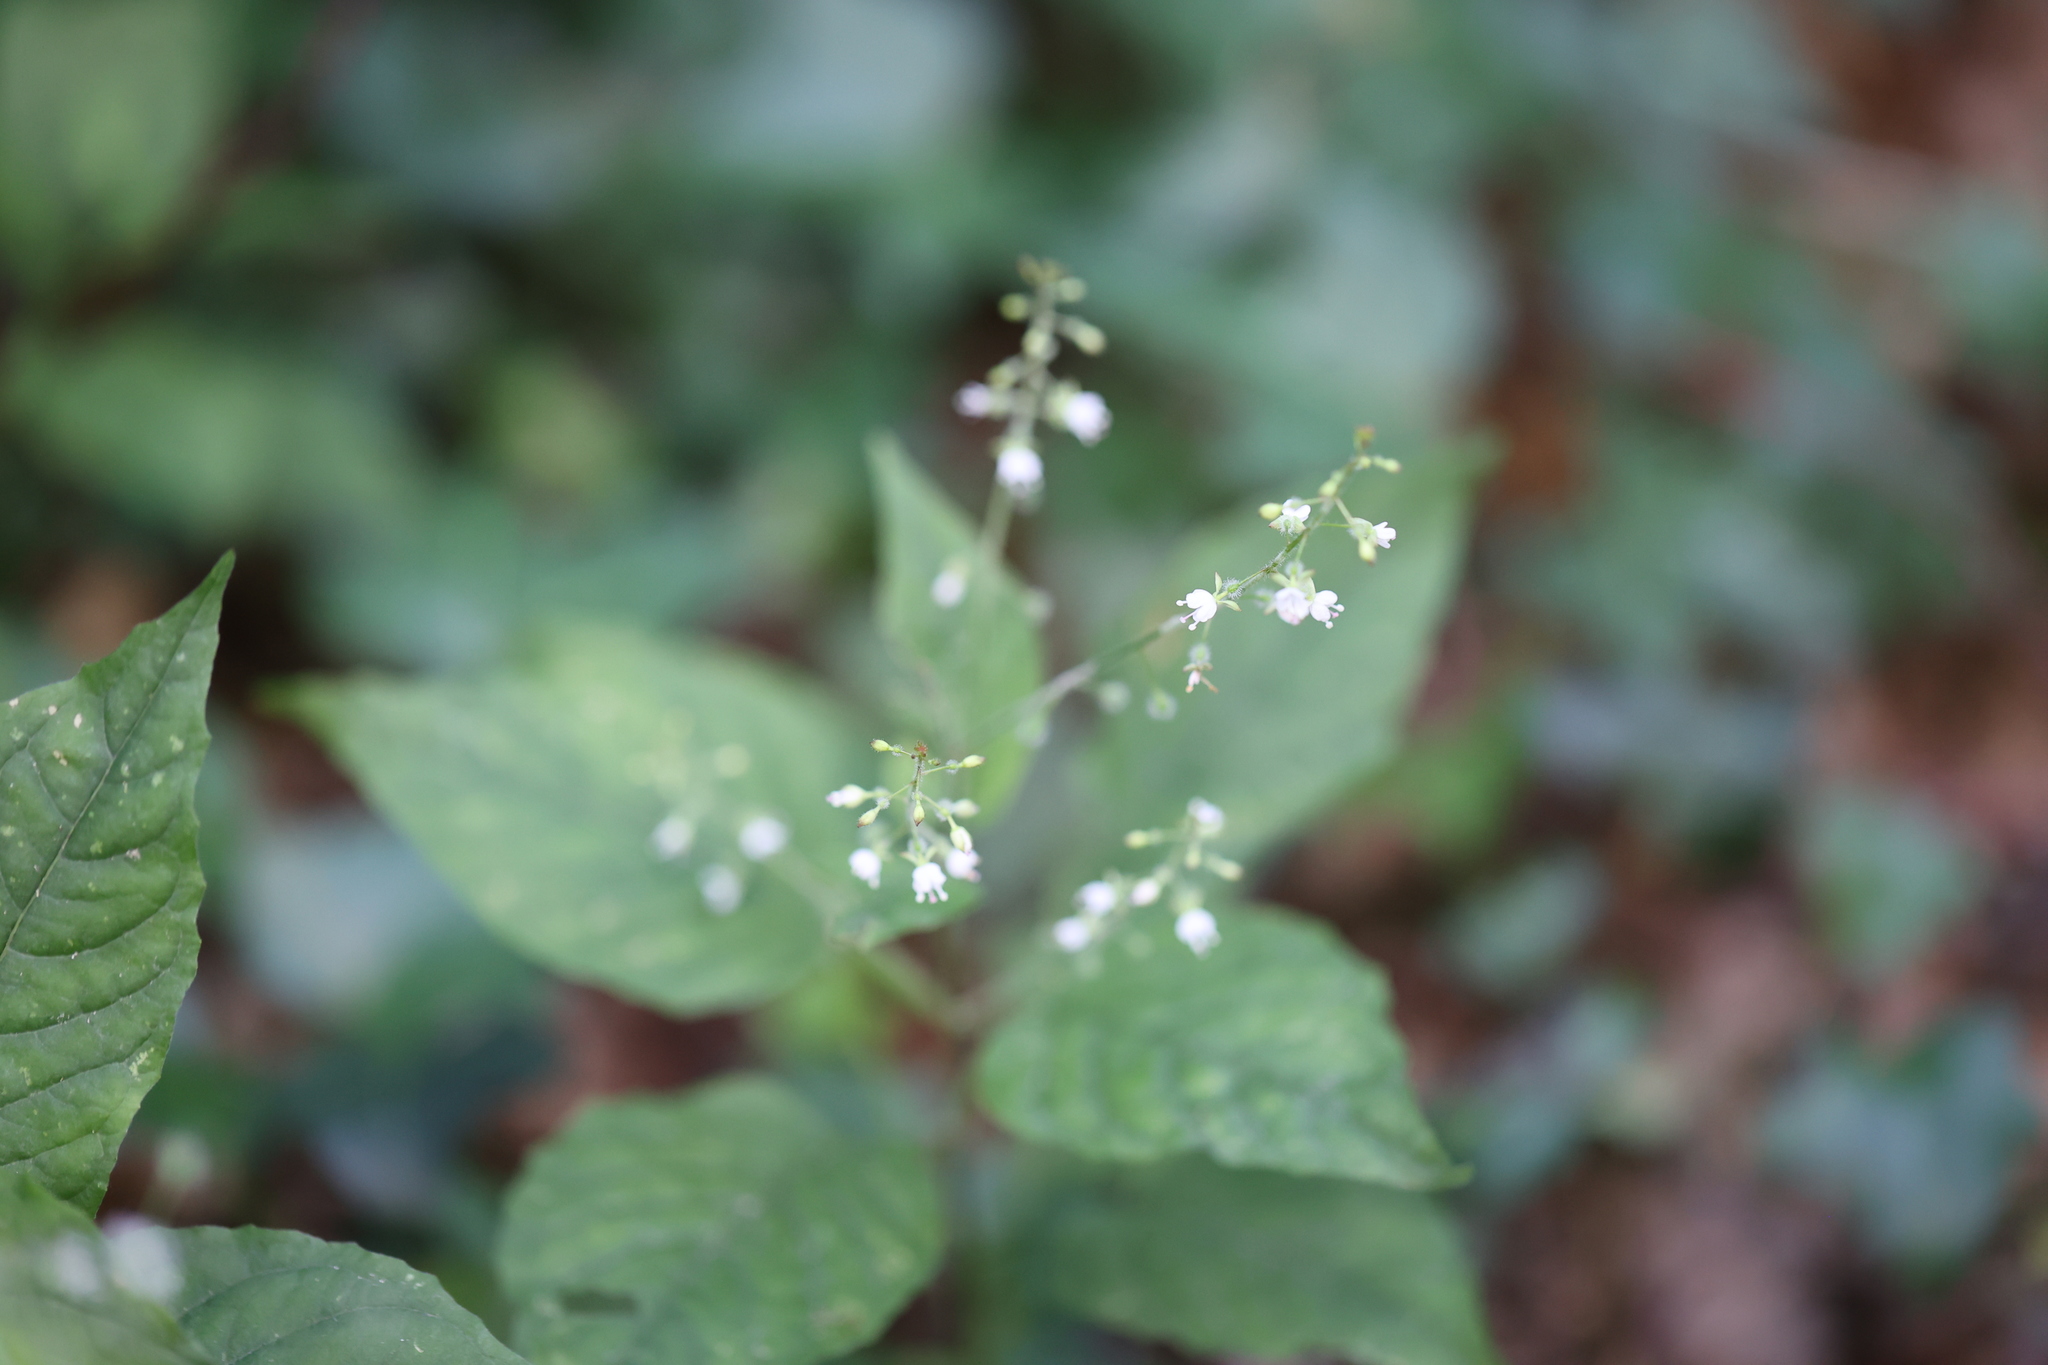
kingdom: Plantae
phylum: Tracheophyta
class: Magnoliopsida
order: Myrtales
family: Onagraceae
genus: Circaea
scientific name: Circaea lutetiana
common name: Enchanter's-nightshade
